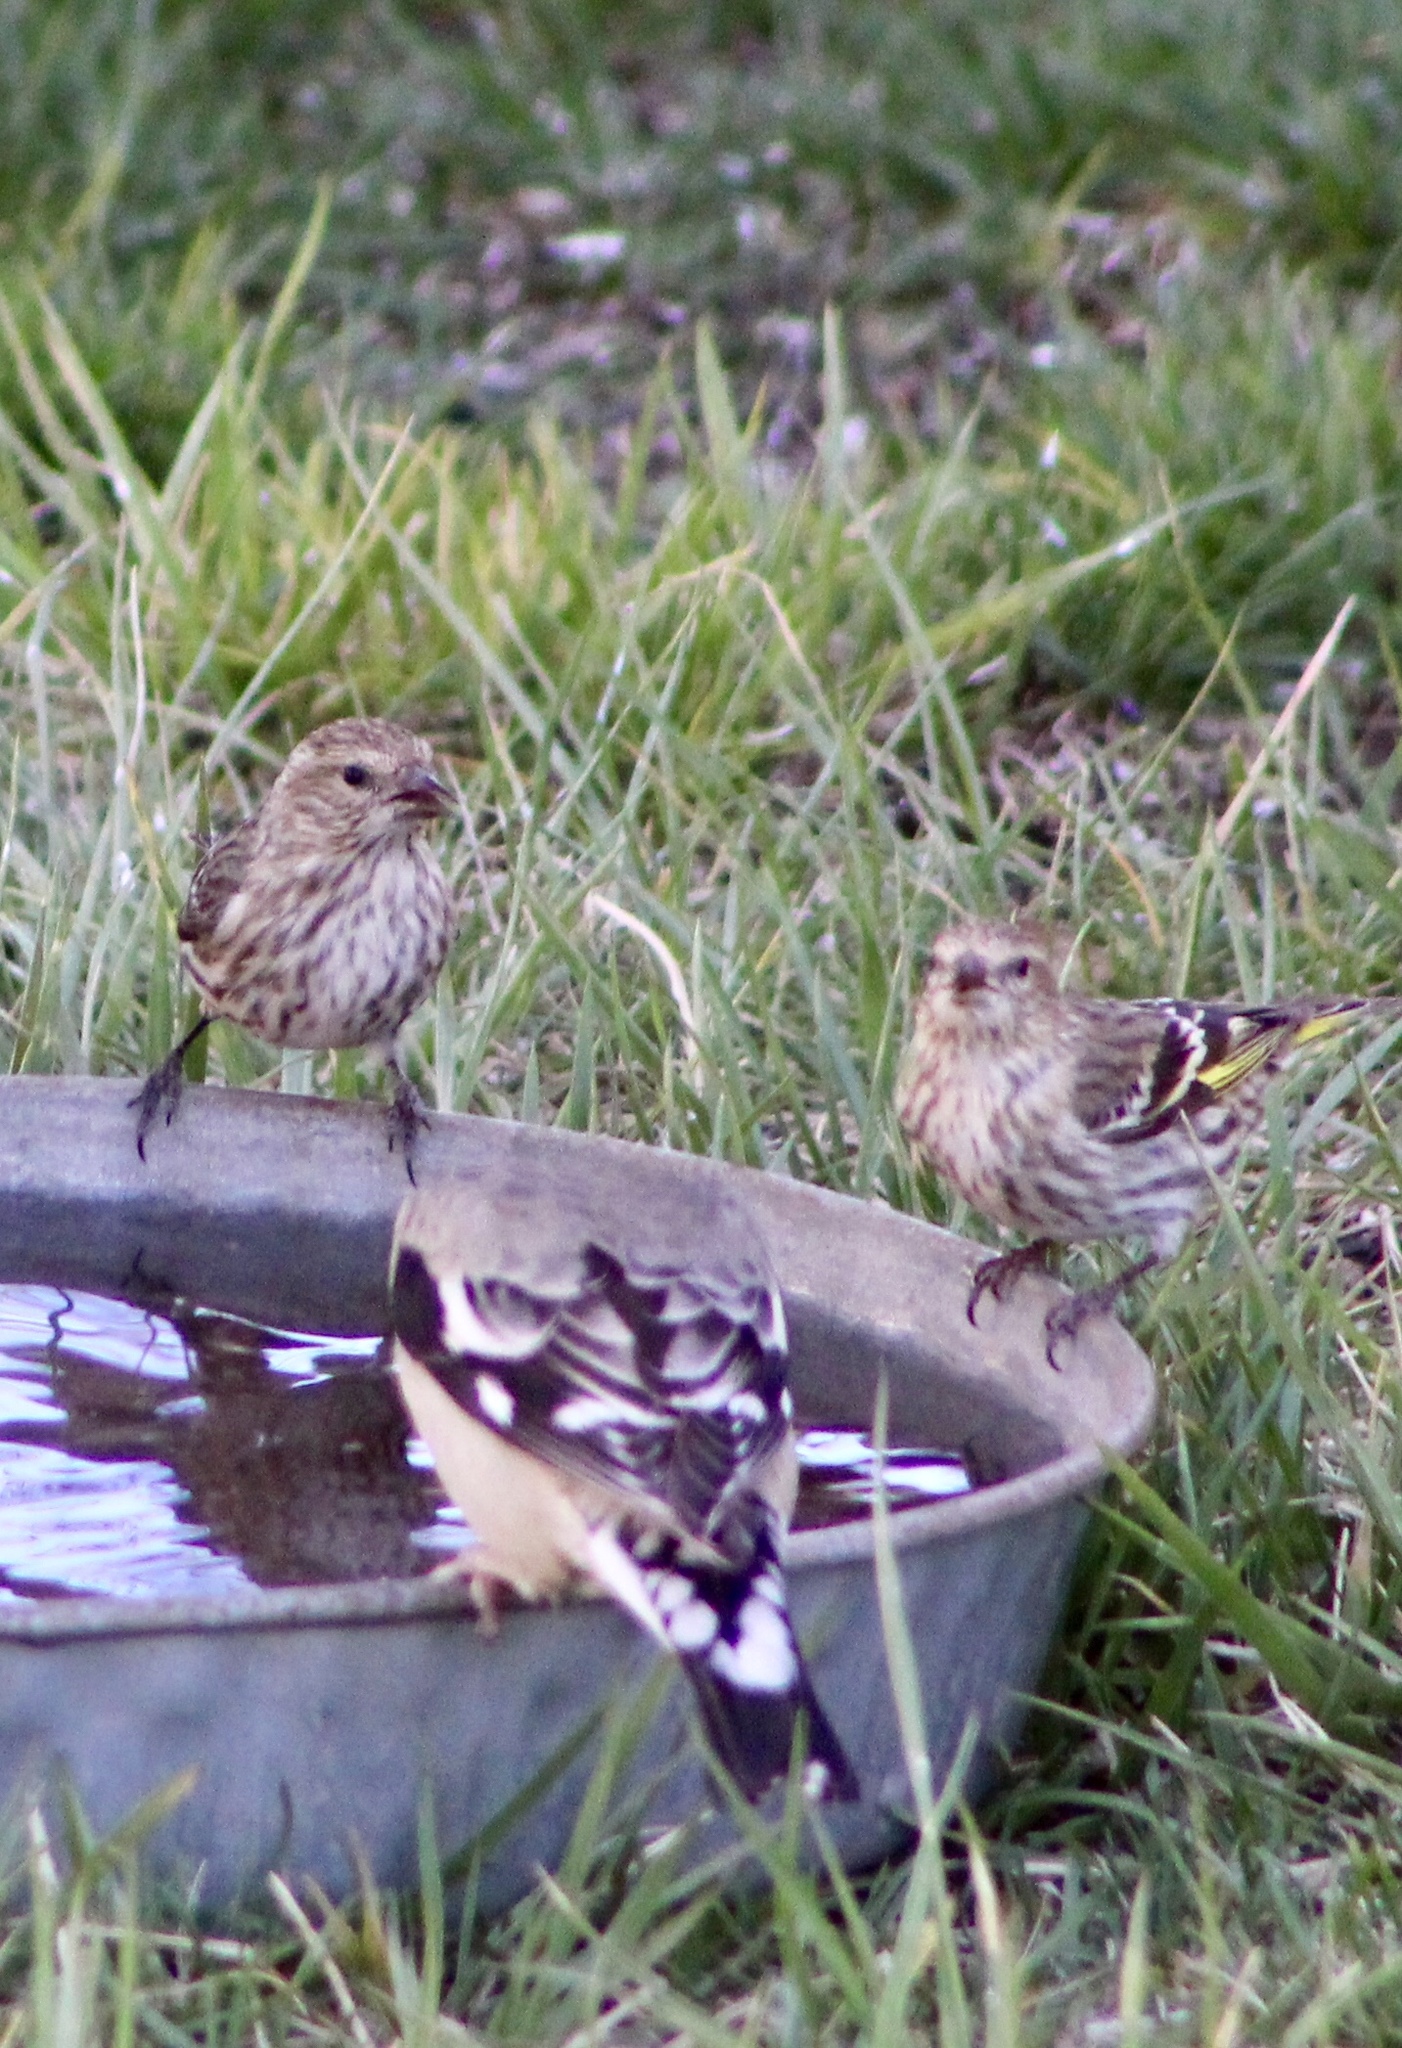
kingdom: Animalia
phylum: Chordata
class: Aves
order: Passeriformes
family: Fringillidae
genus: Spinus
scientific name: Spinus pinus
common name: Pine siskin
